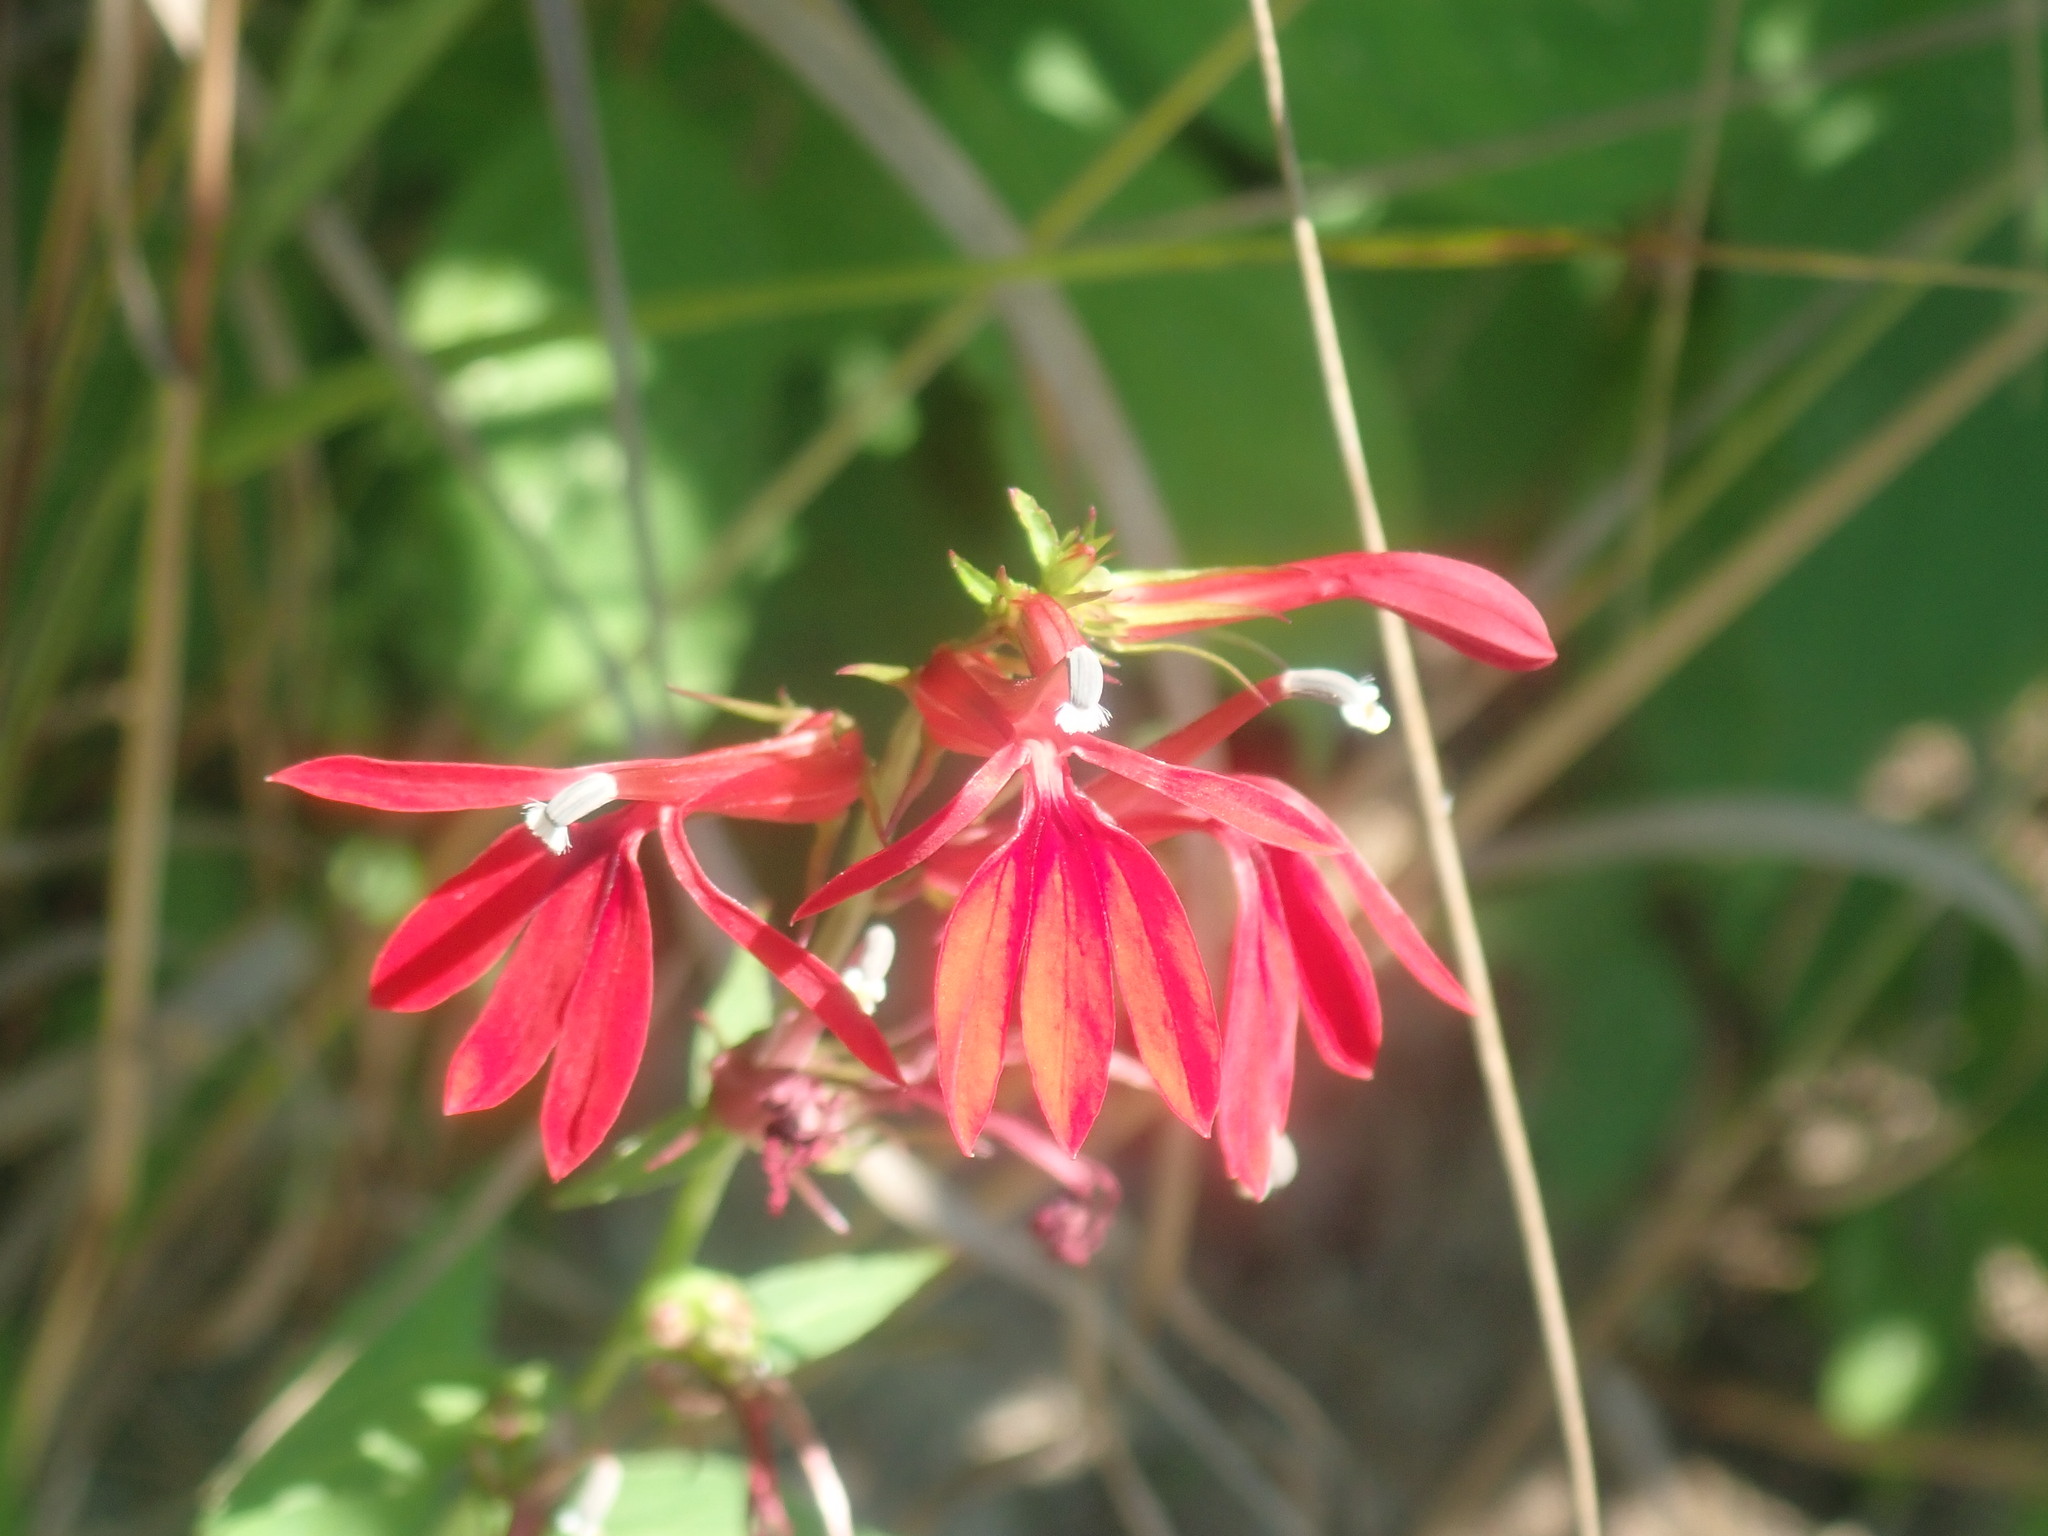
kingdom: Plantae
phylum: Tracheophyta
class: Magnoliopsida
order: Asterales
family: Campanulaceae
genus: Lobelia
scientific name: Lobelia cardinalis
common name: Cardinal flower
